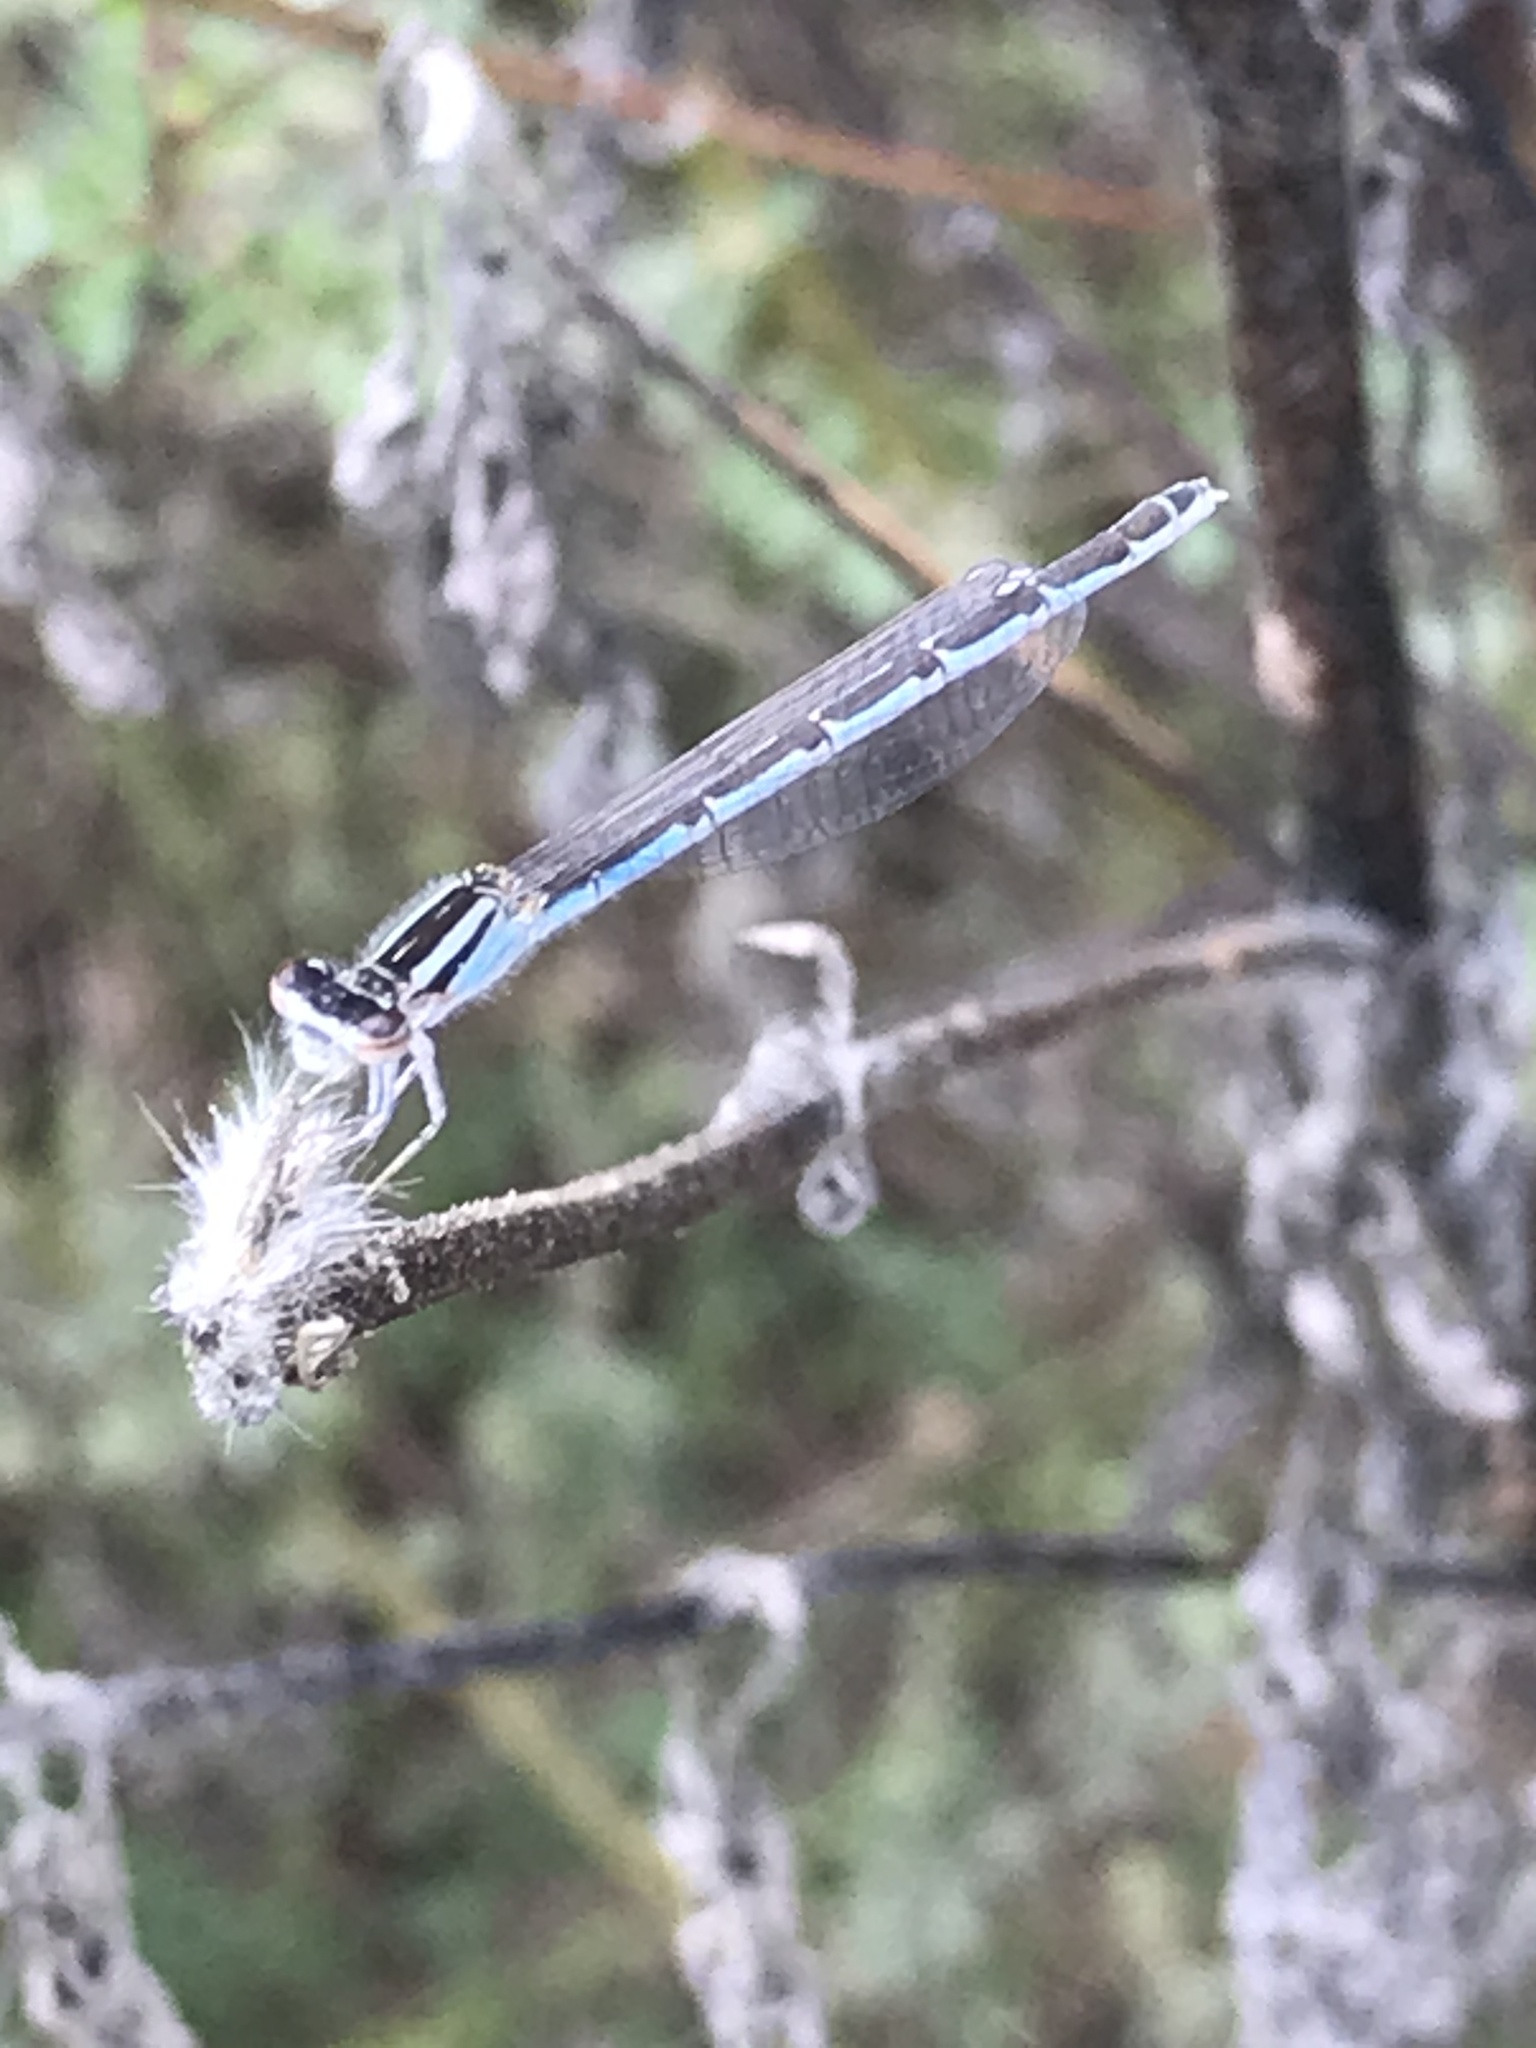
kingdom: Animalia
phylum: Arthropoda
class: Insecta
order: Odonata
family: Coenagrionidae
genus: Enallagma
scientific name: Enallagma civile
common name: Damselfly
